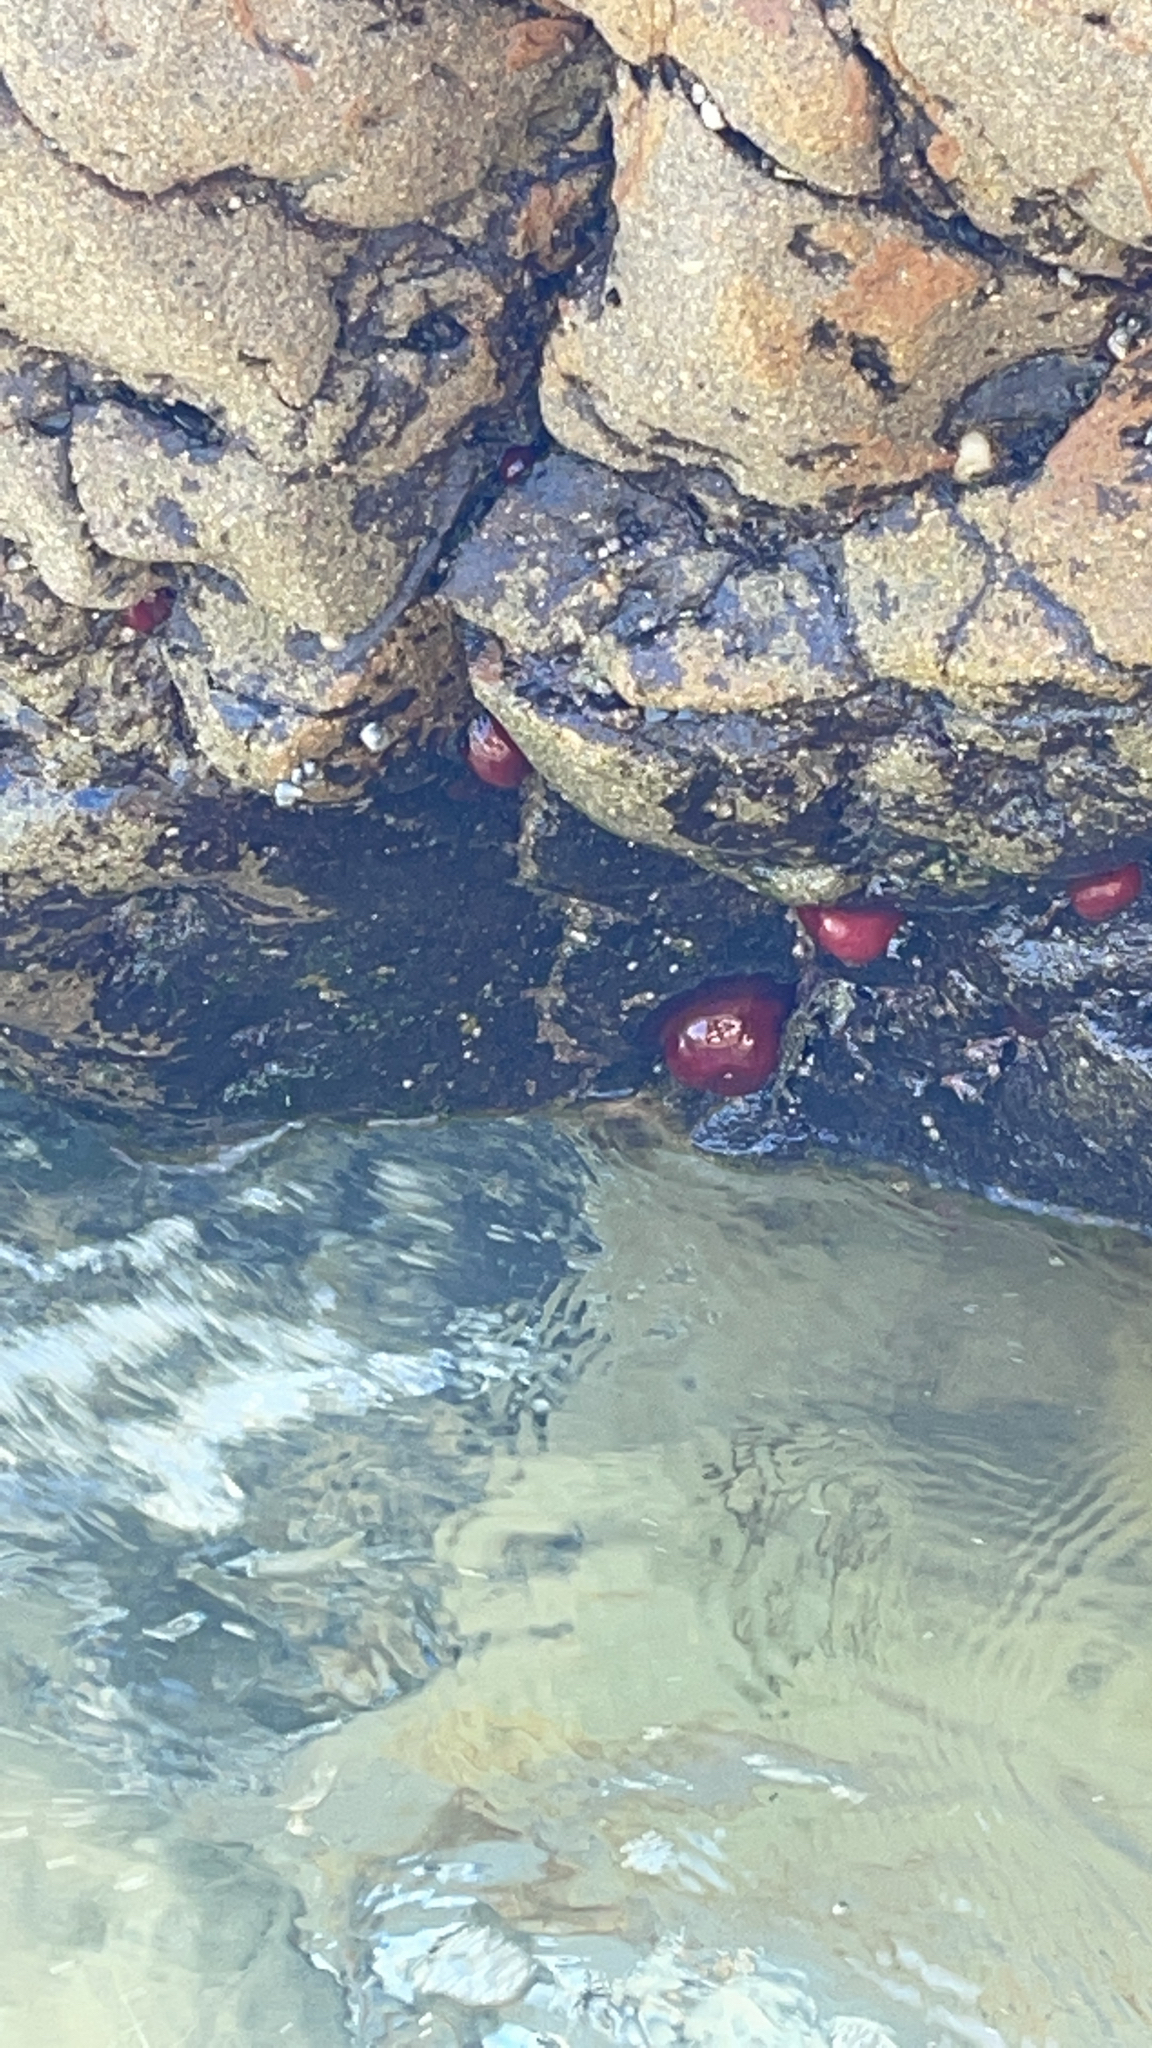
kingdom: Animalia
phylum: Cnidaria
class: Anthozoa
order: Actiniaria
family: Actiniidae
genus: Actinia
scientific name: Actinia mediterranea
